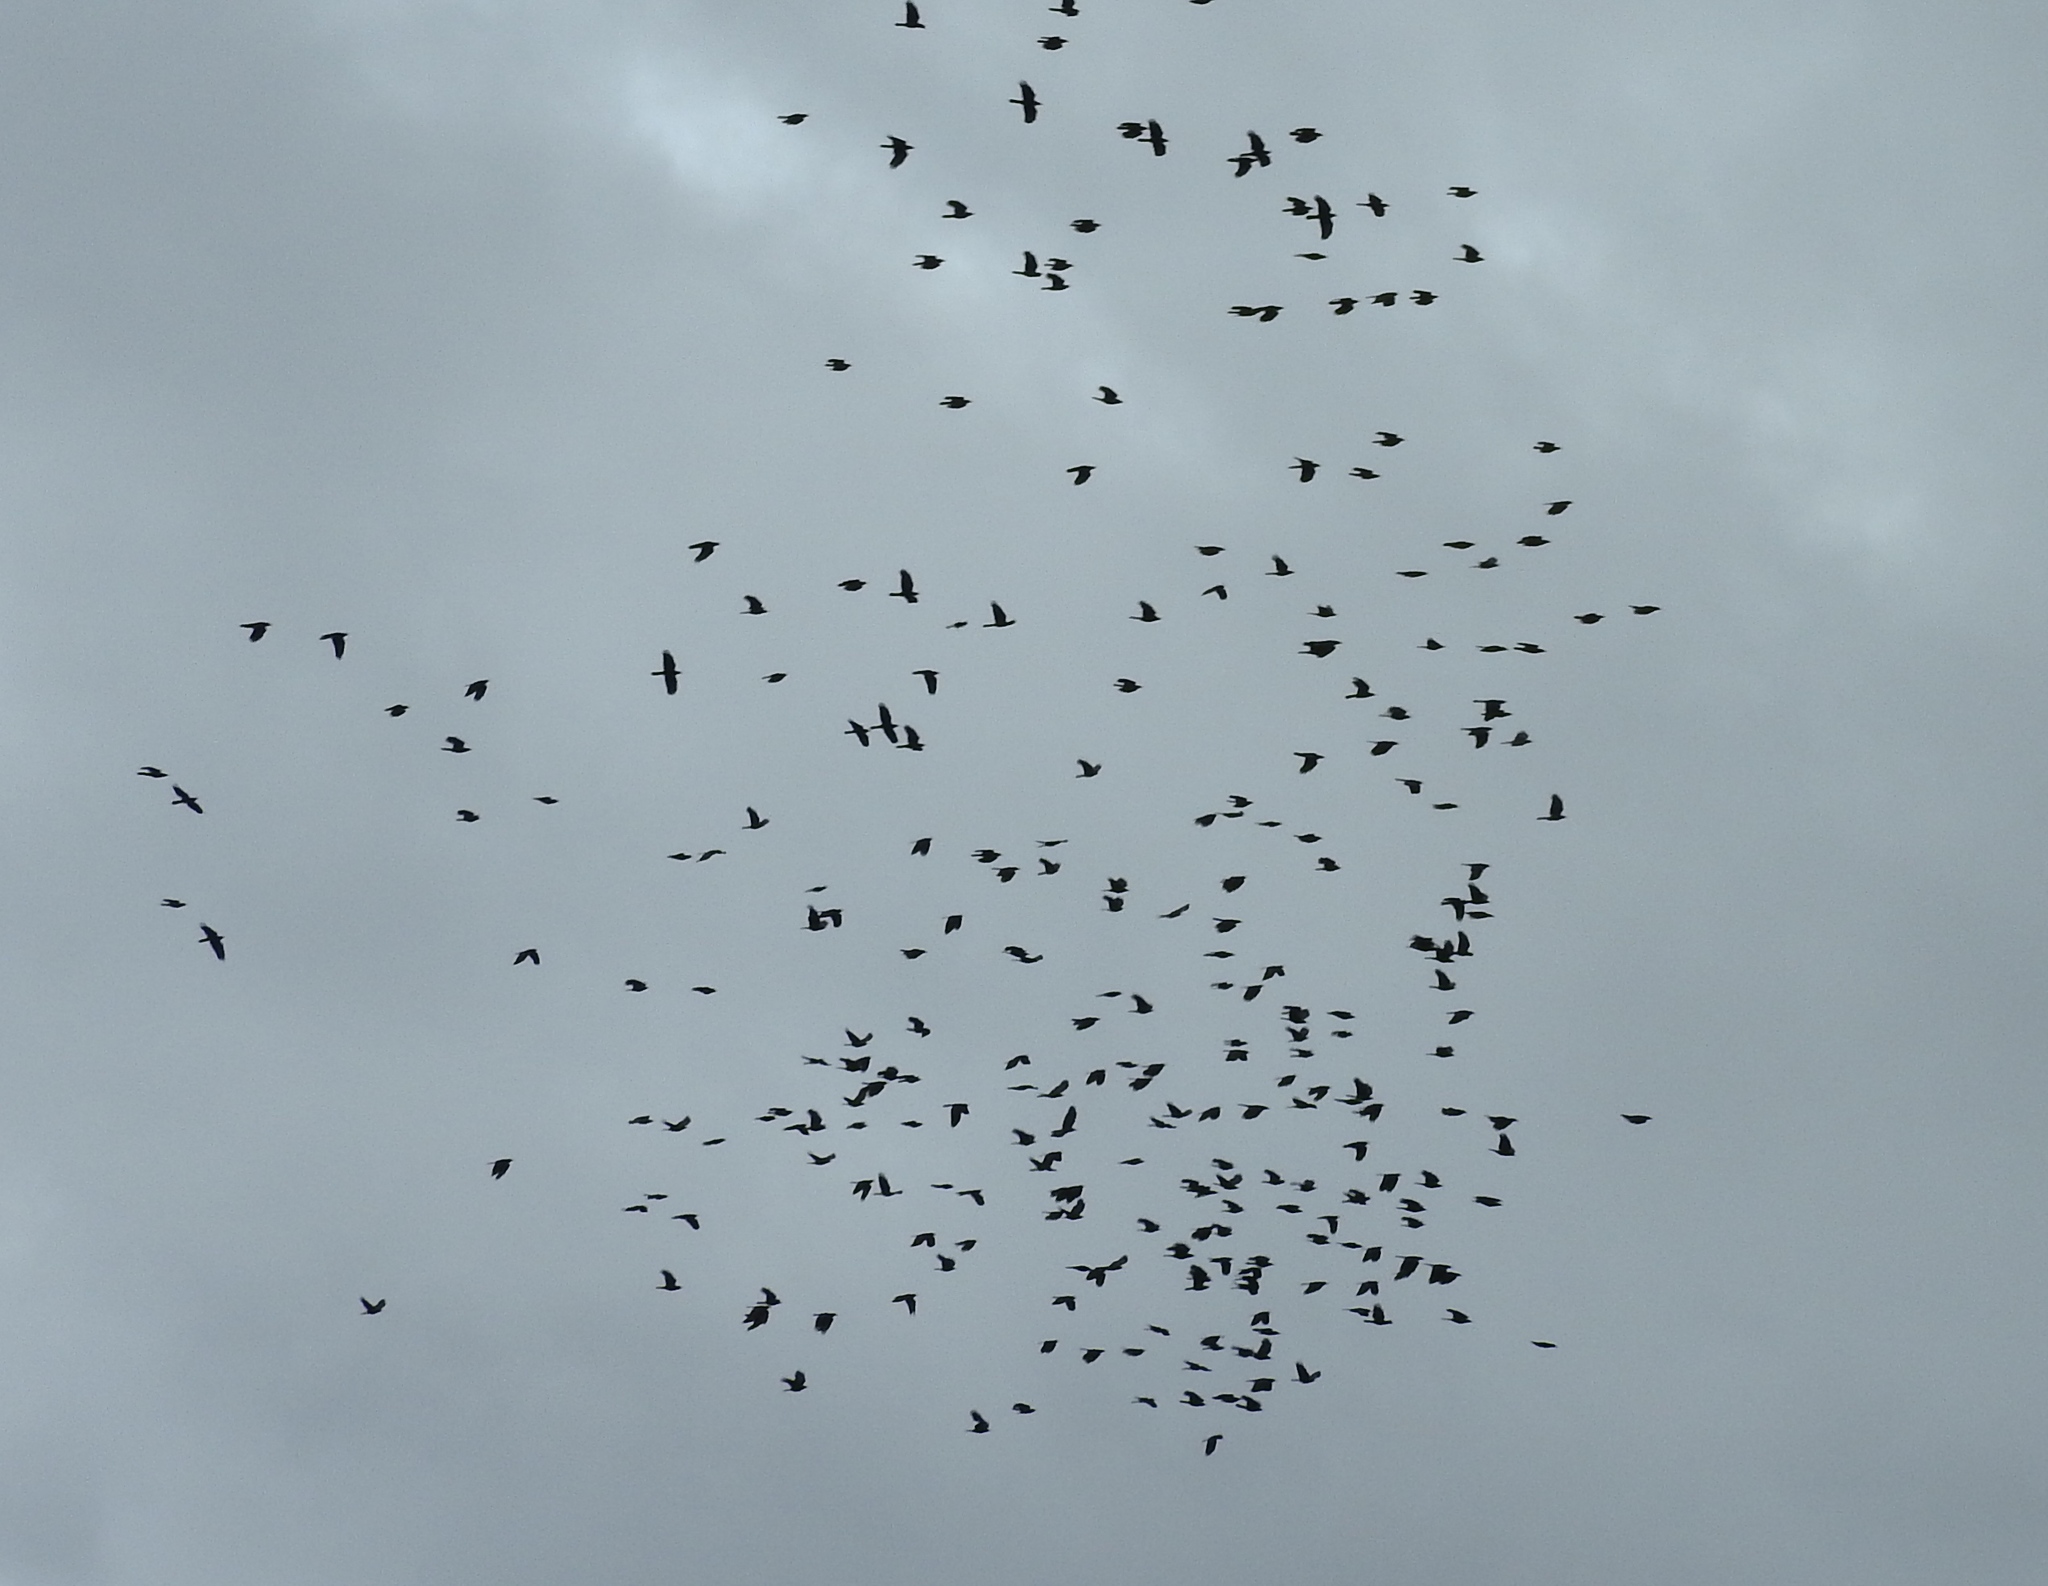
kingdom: Animalia
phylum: Chordata
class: Aves
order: Passeriformes
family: Corvidae
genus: Corvus
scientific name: Corvus sinaloae
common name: Sinaloa crow
